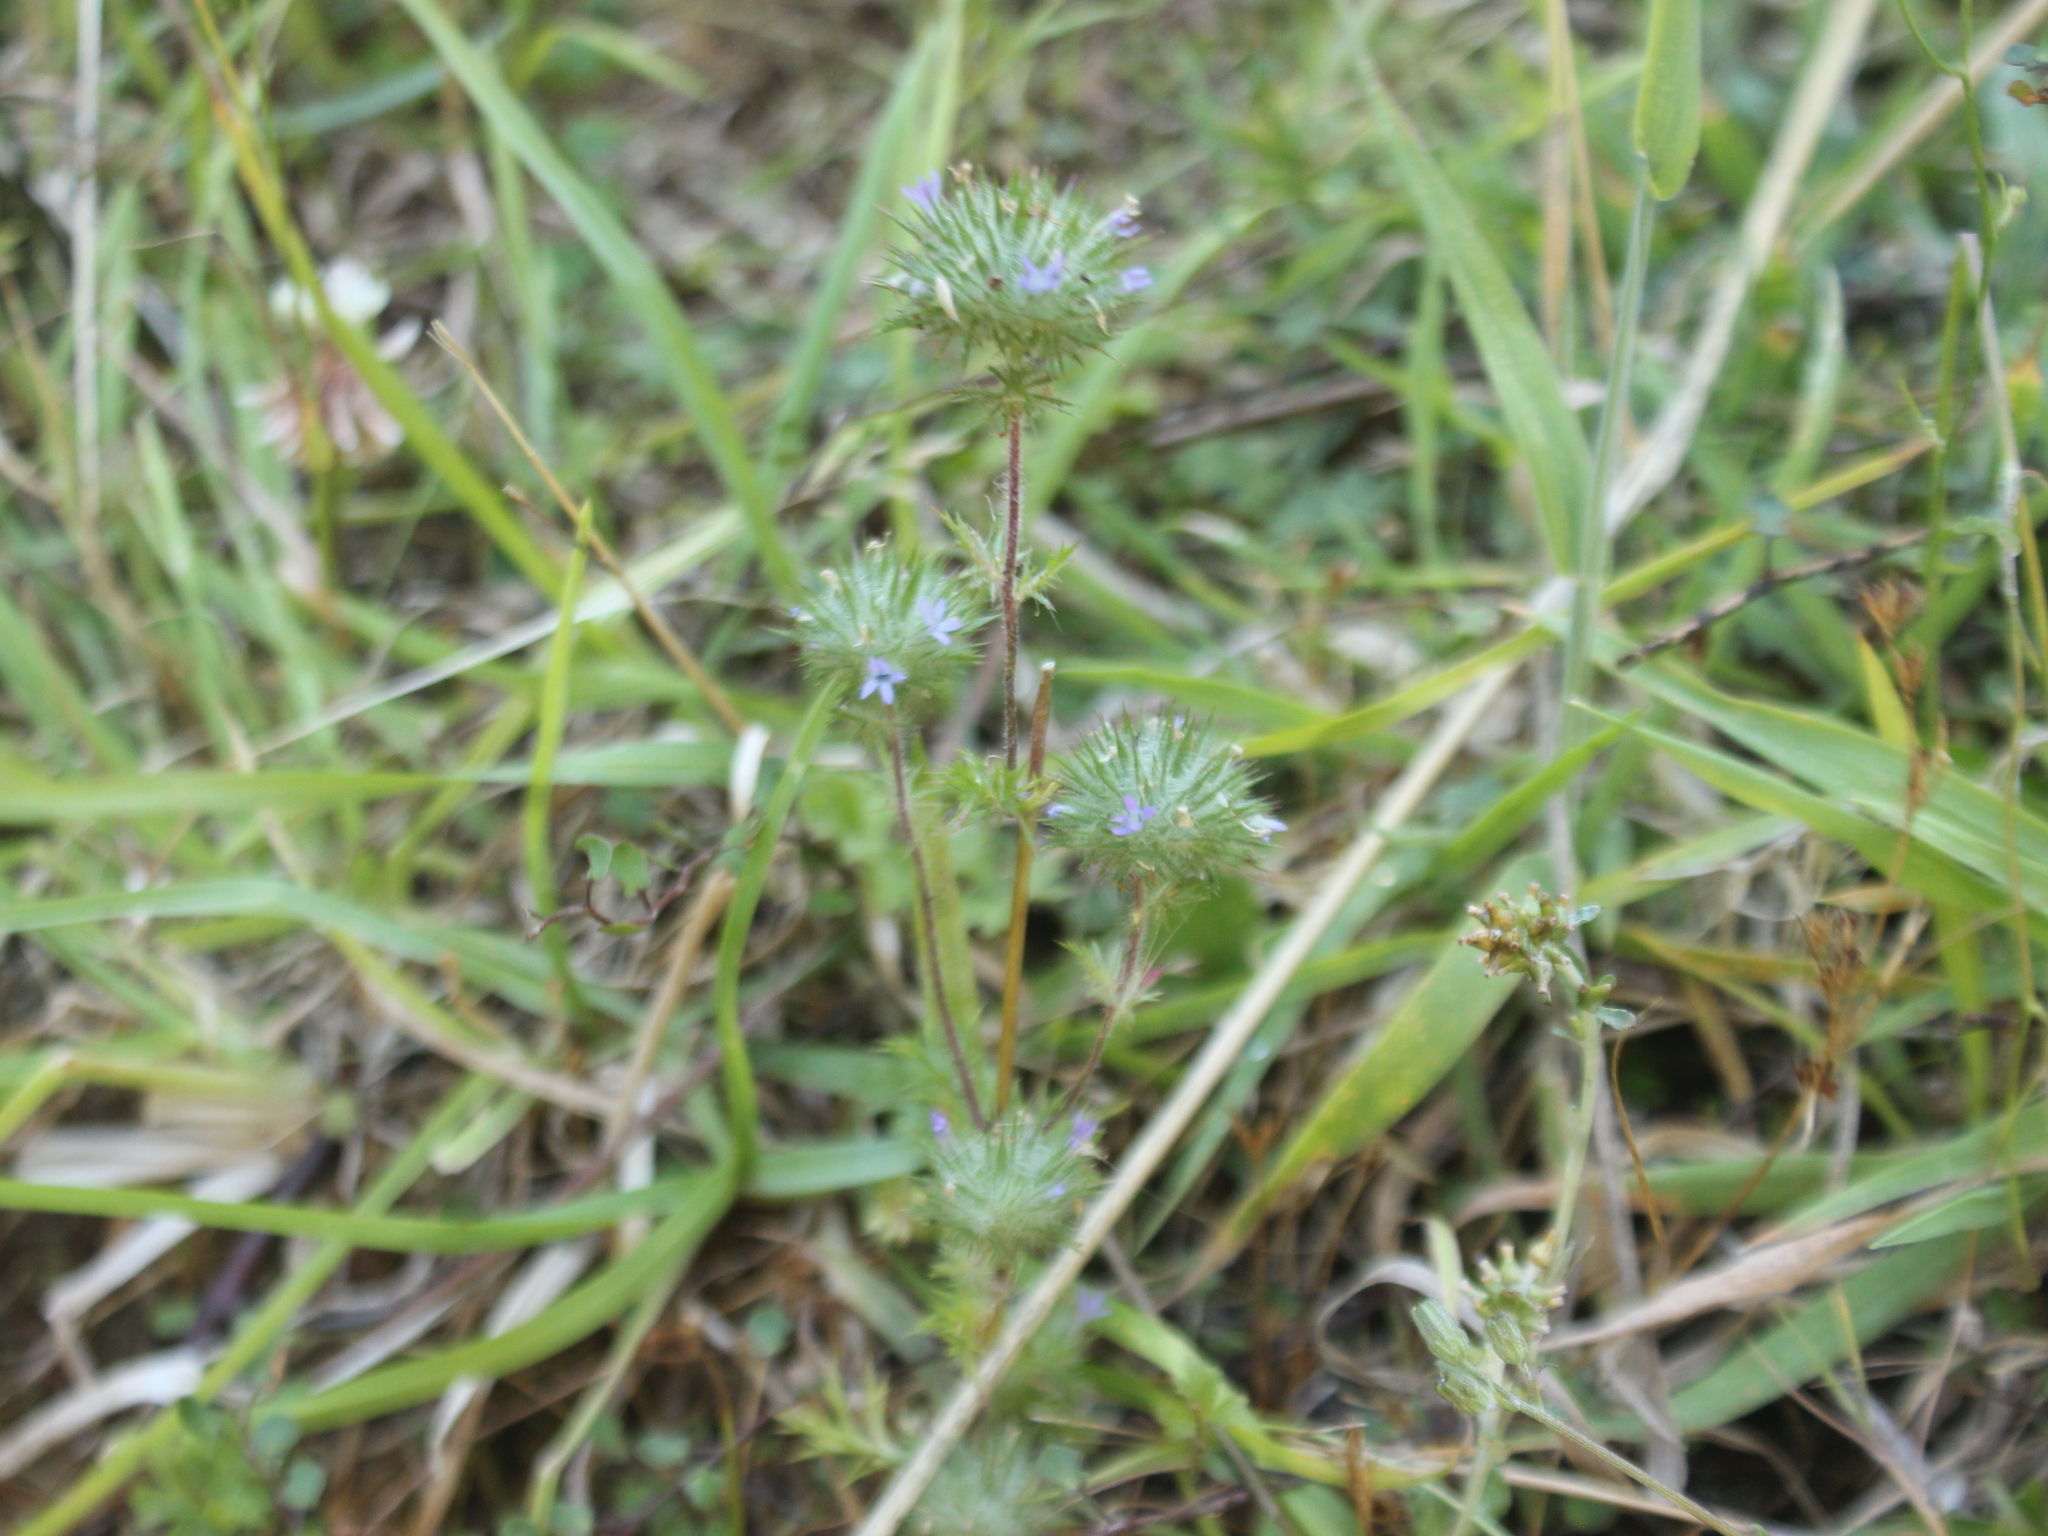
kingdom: Plantae
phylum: Tracheophyta
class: Magnoliopsida
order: Ericales
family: Polemoniaceae
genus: Navarretia
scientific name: Navarretia squarrosa
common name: Skunkweed
